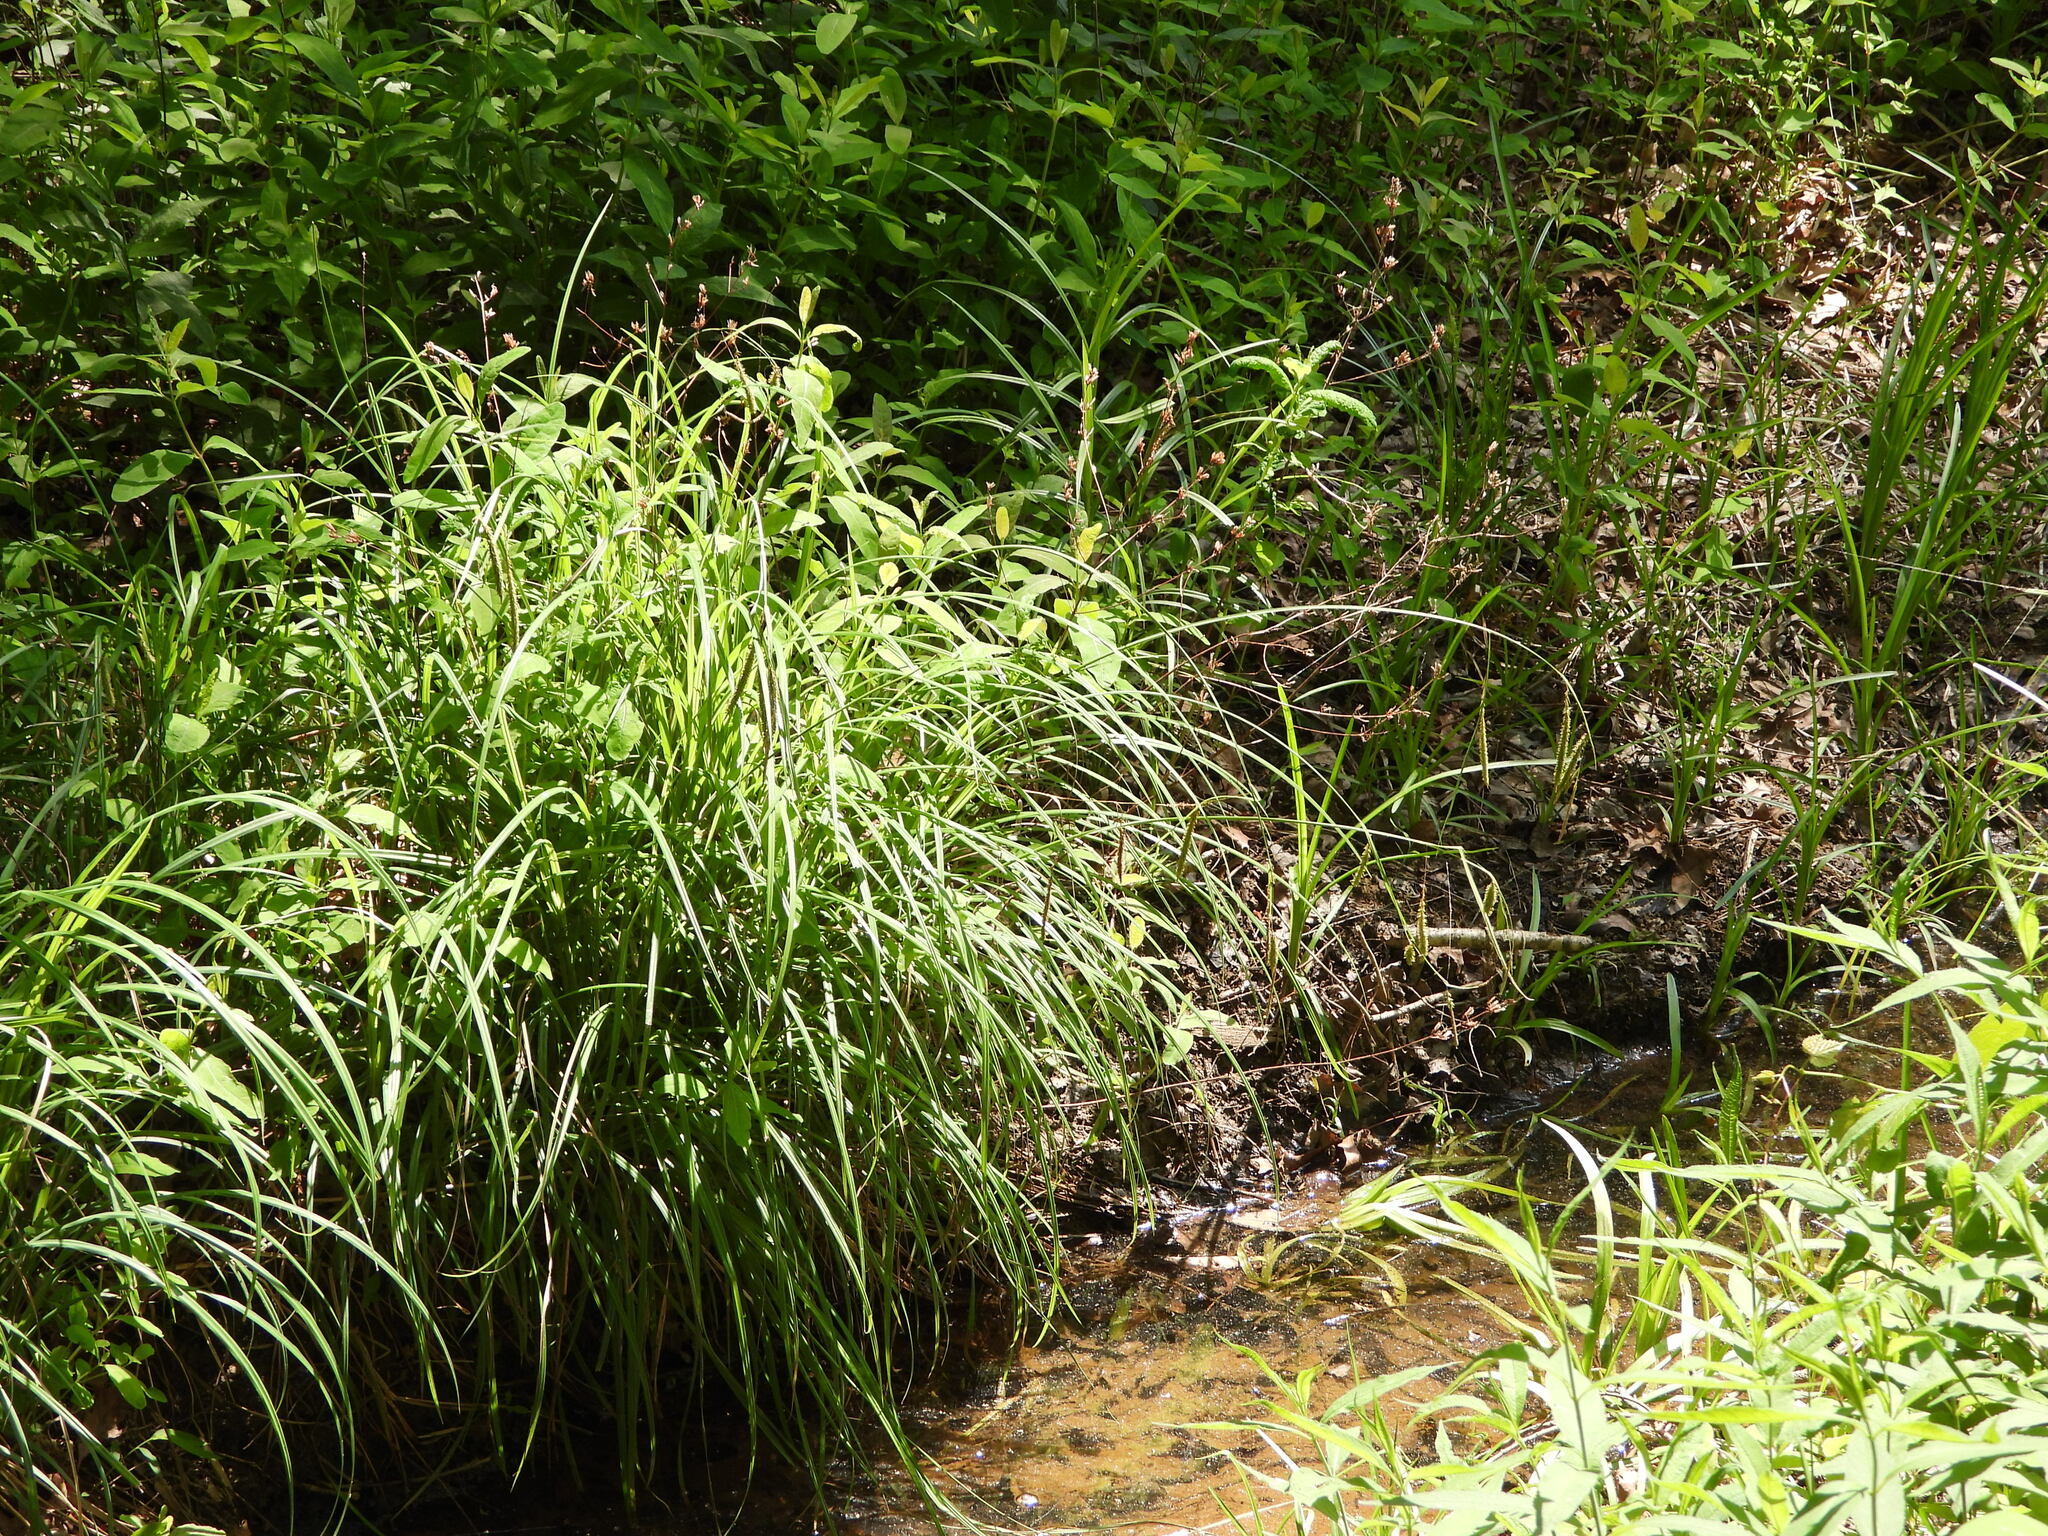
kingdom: Plantae
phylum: Tracheophyta
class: Liliopsida
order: Poales
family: Cyperaceae
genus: Carex
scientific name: Carex crinita
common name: Fringed sedge
